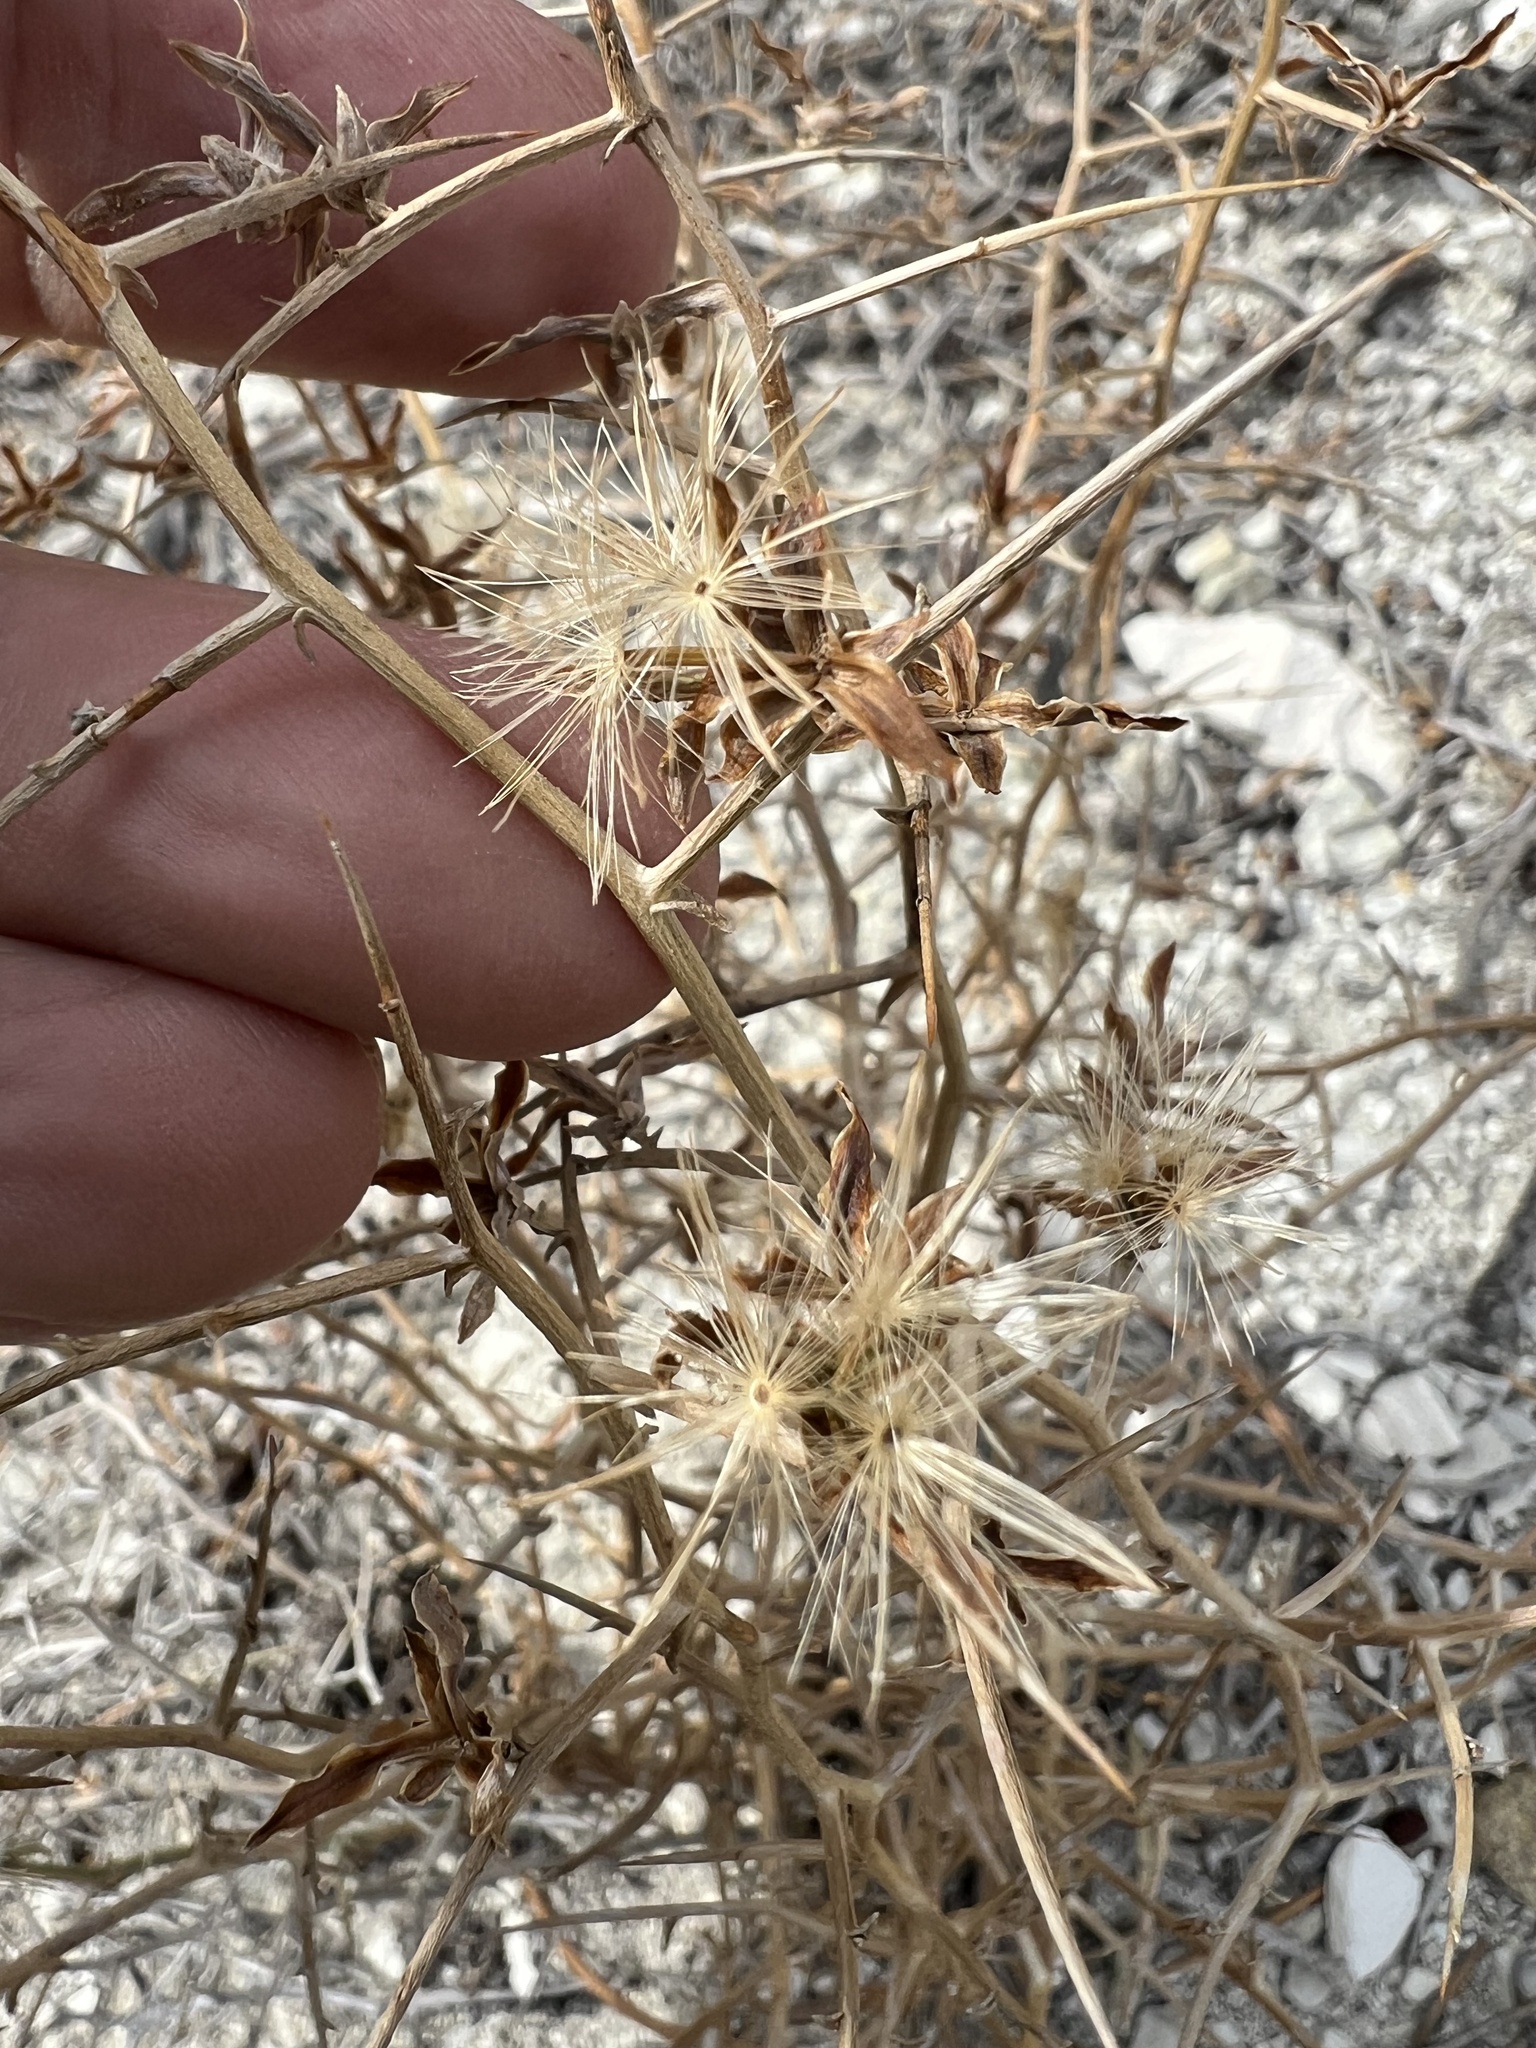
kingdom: Plantae
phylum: Tracheophyta
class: Magnoliopsida
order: Asterales
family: Asteraceae
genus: Pleiacanthus
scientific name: Pleiacanthus spinosus
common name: Thorny skeleton-weed
